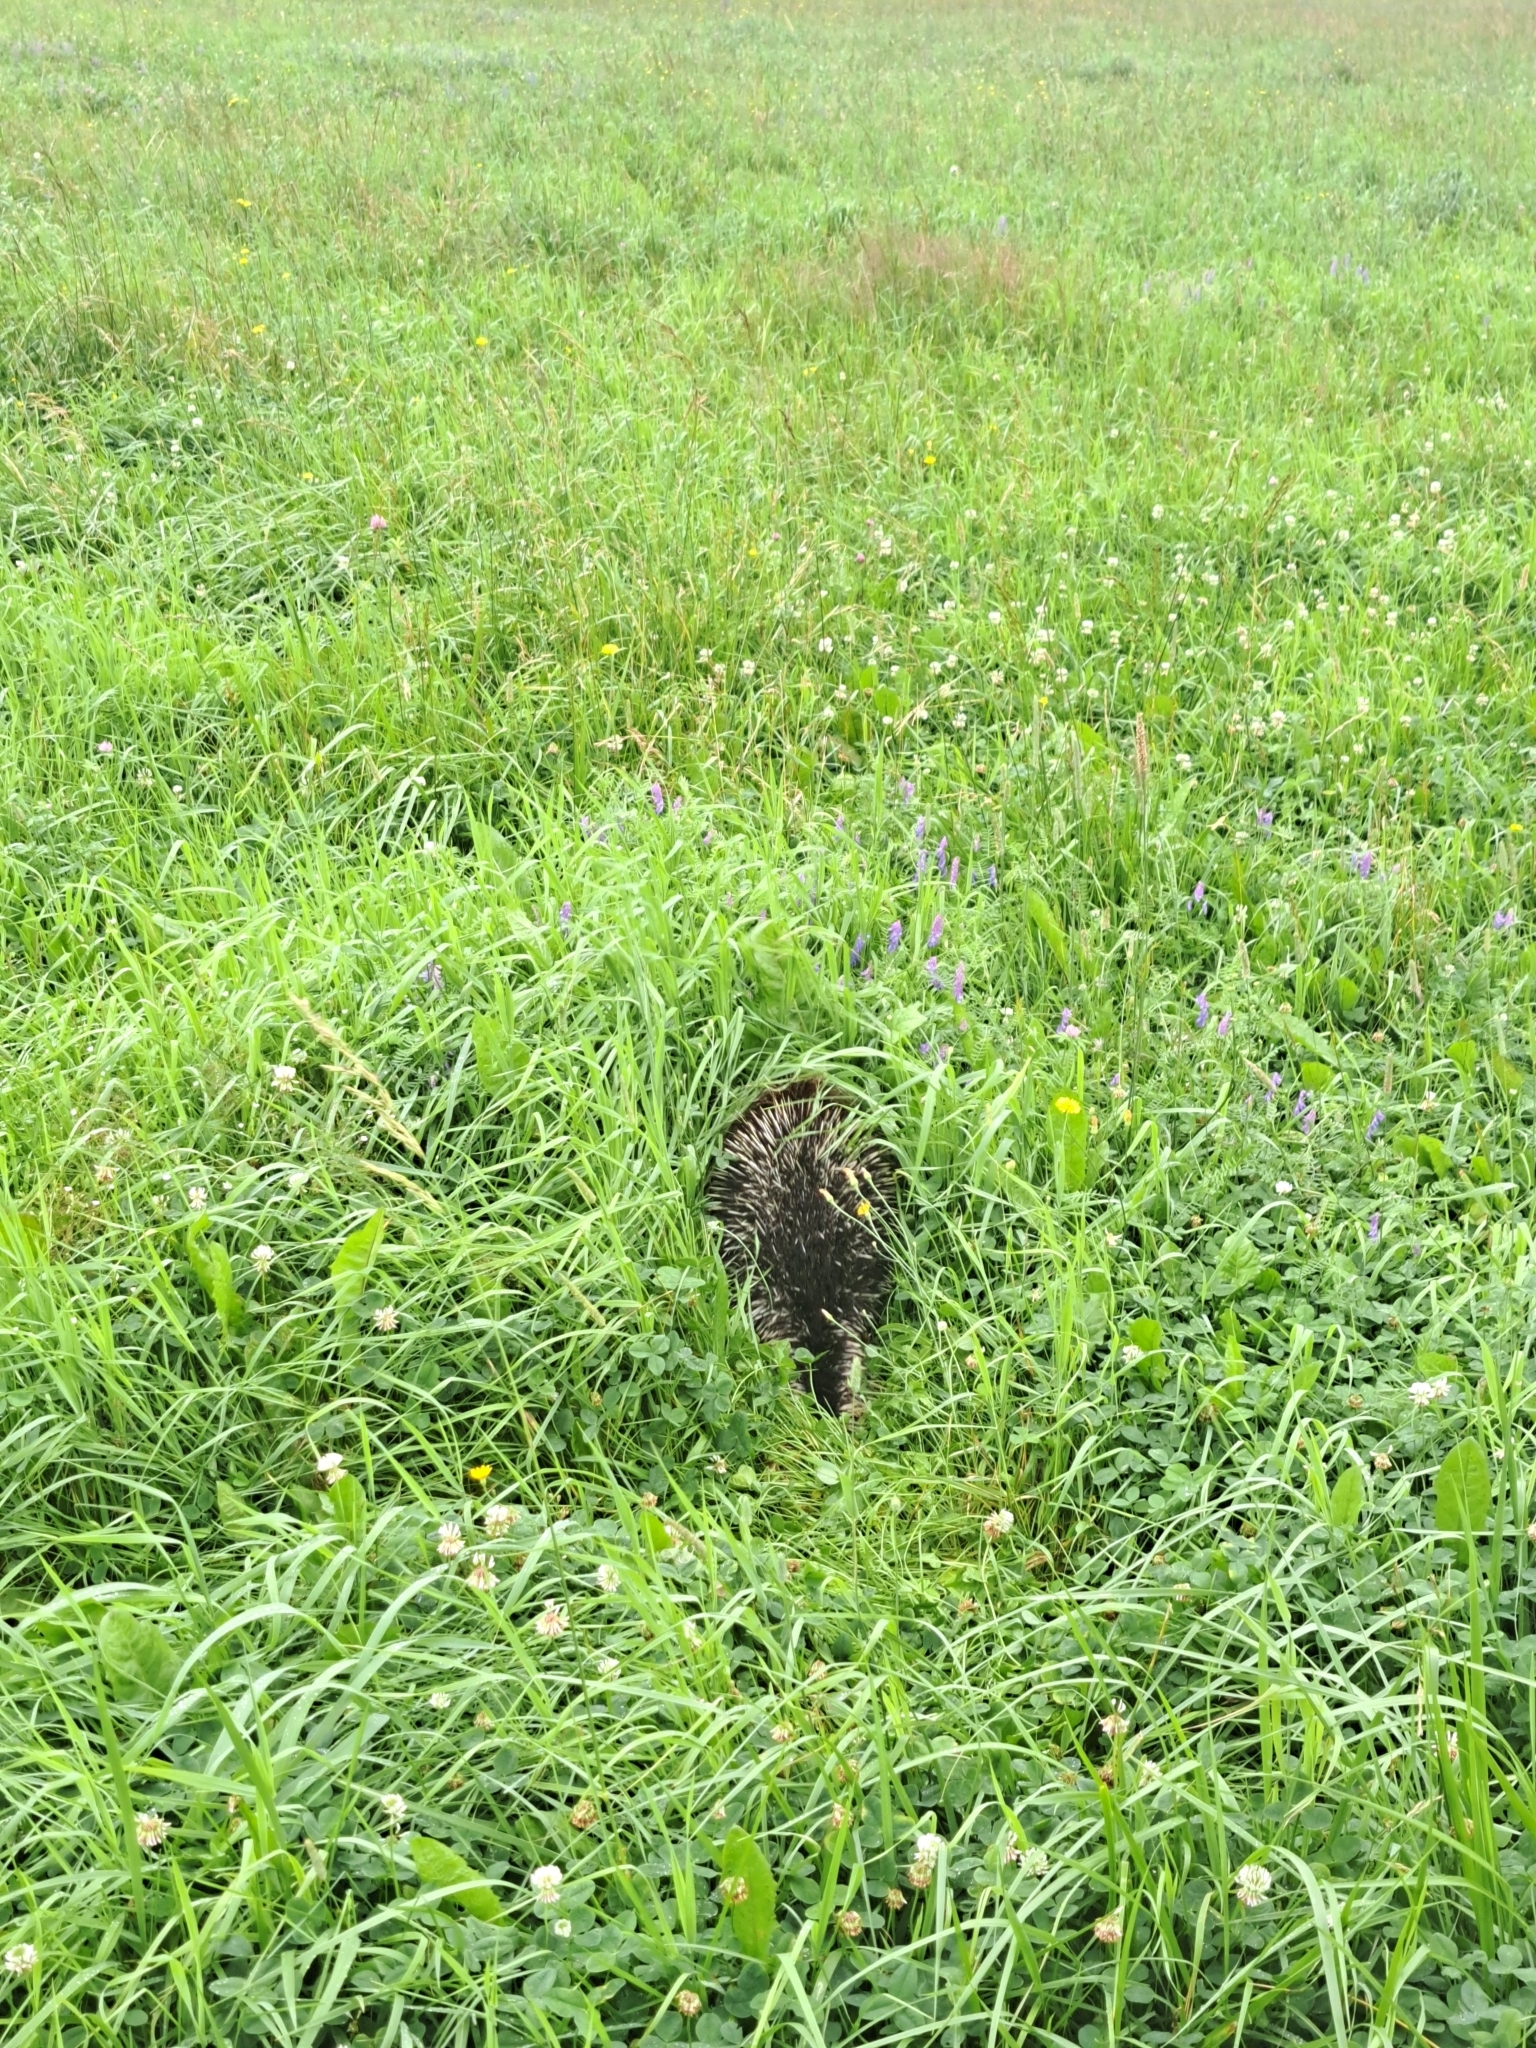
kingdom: Animalia
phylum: Chordata
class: Mammalia
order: Rodentia
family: Erethizontidae
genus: Erethizon
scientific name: Erethizon dorsatus
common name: North american porcupine
